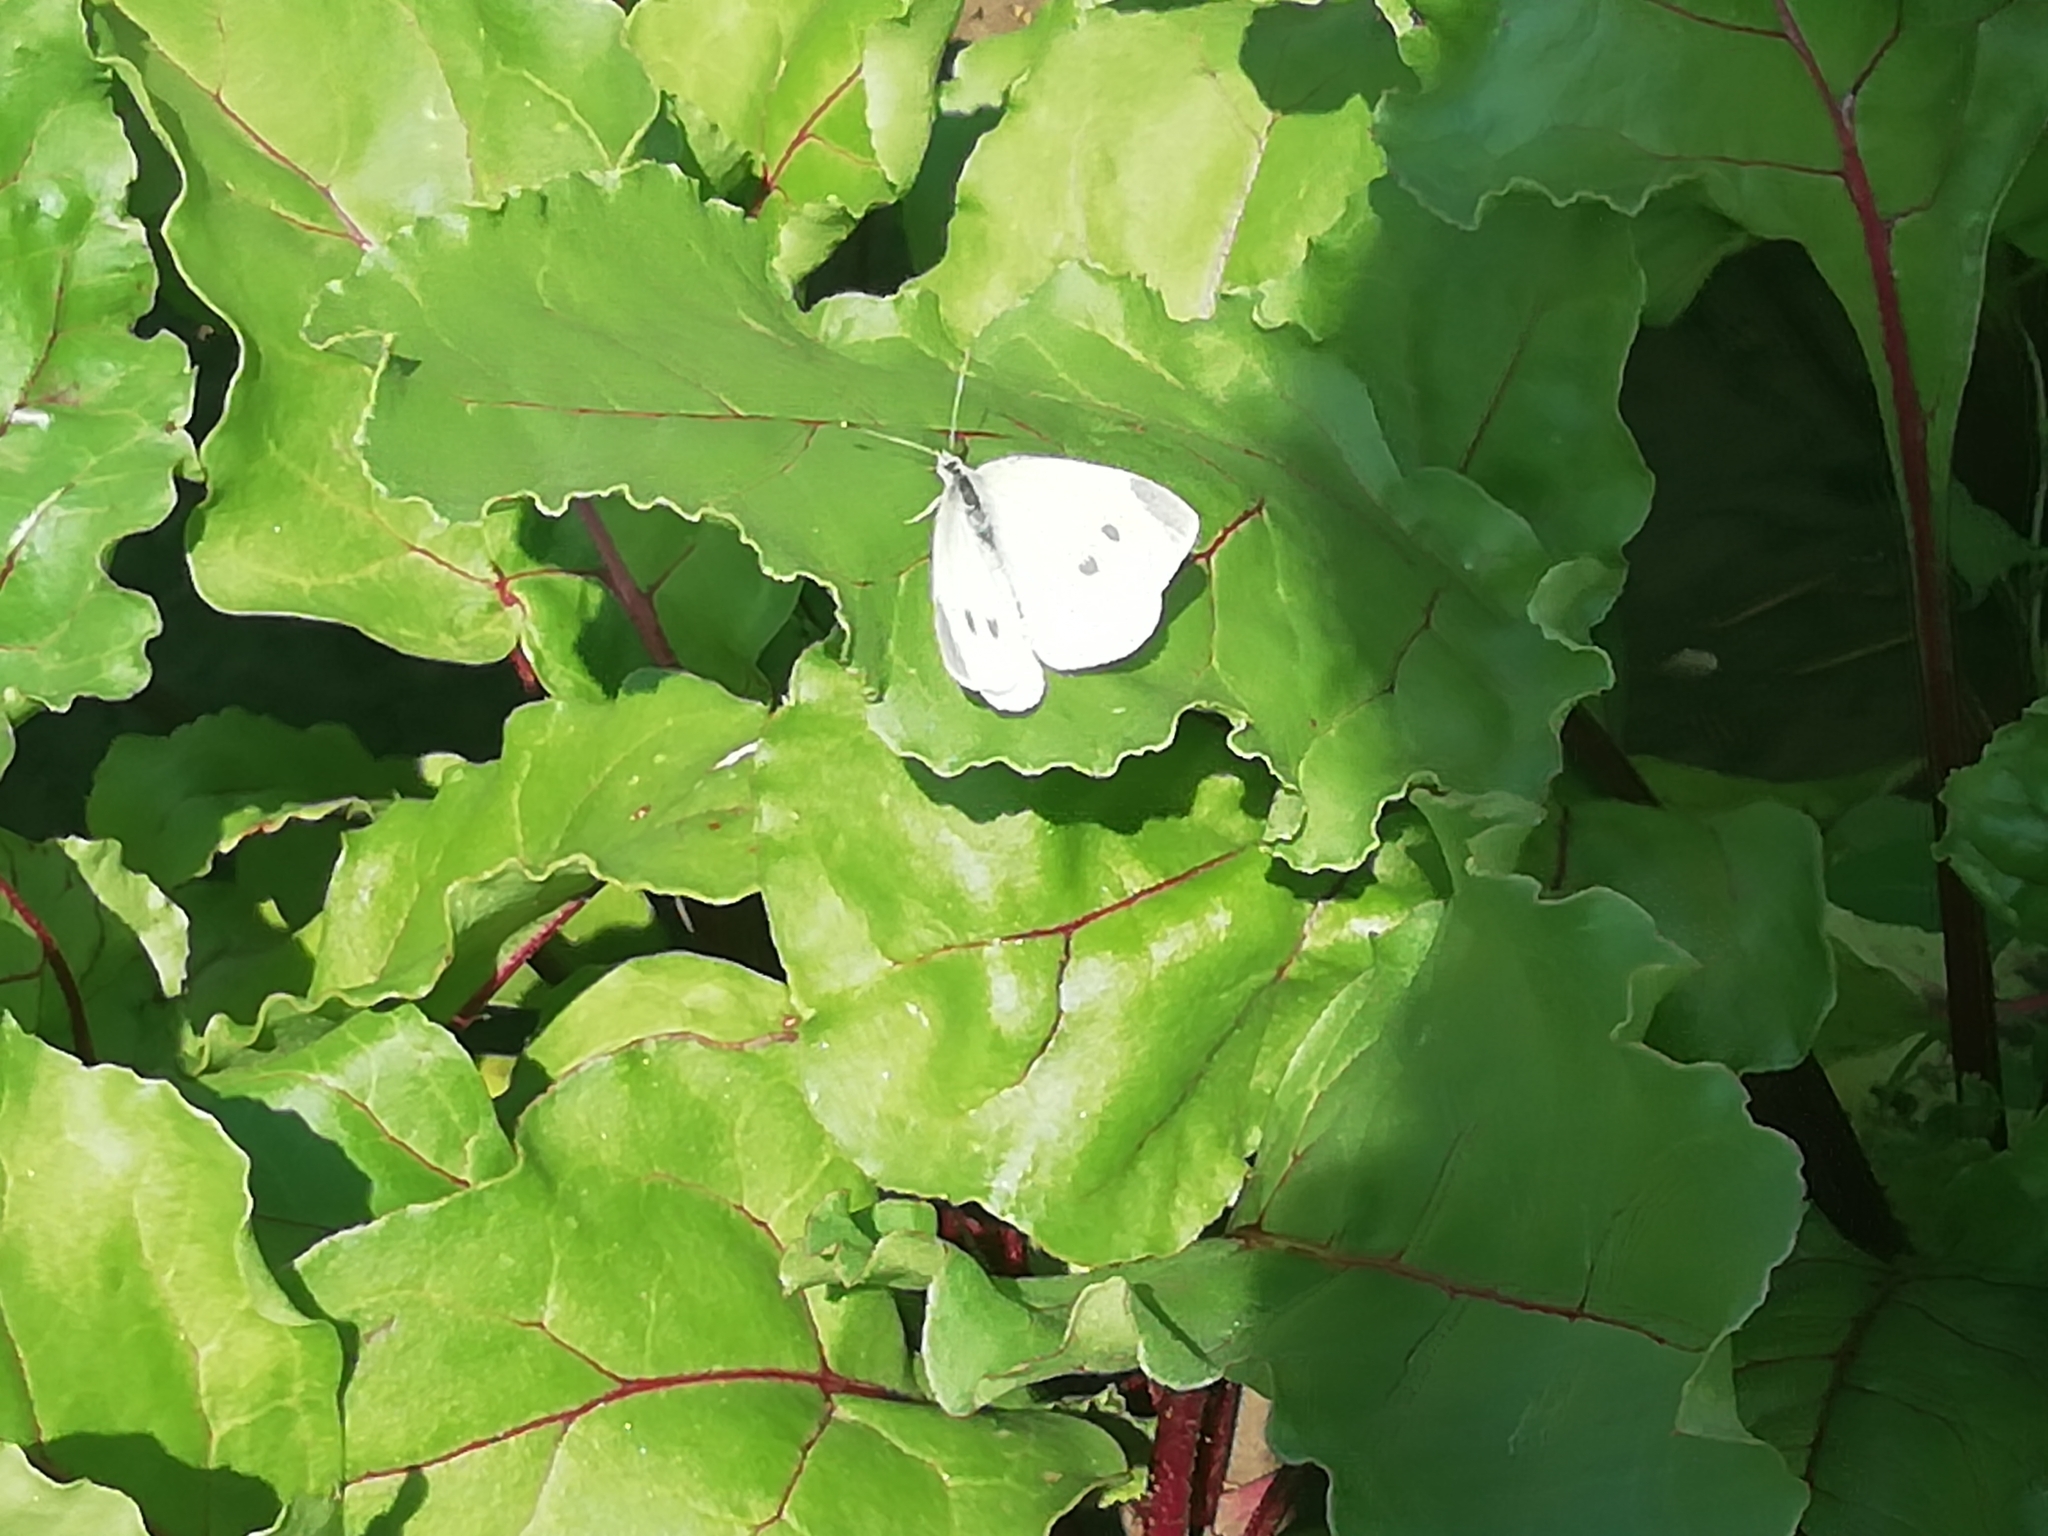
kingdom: Animalia
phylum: Arthropoda
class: Insecta
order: Lepidoptera
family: Pieridae
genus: Pieris
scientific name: Pieris rapae
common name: Small white
